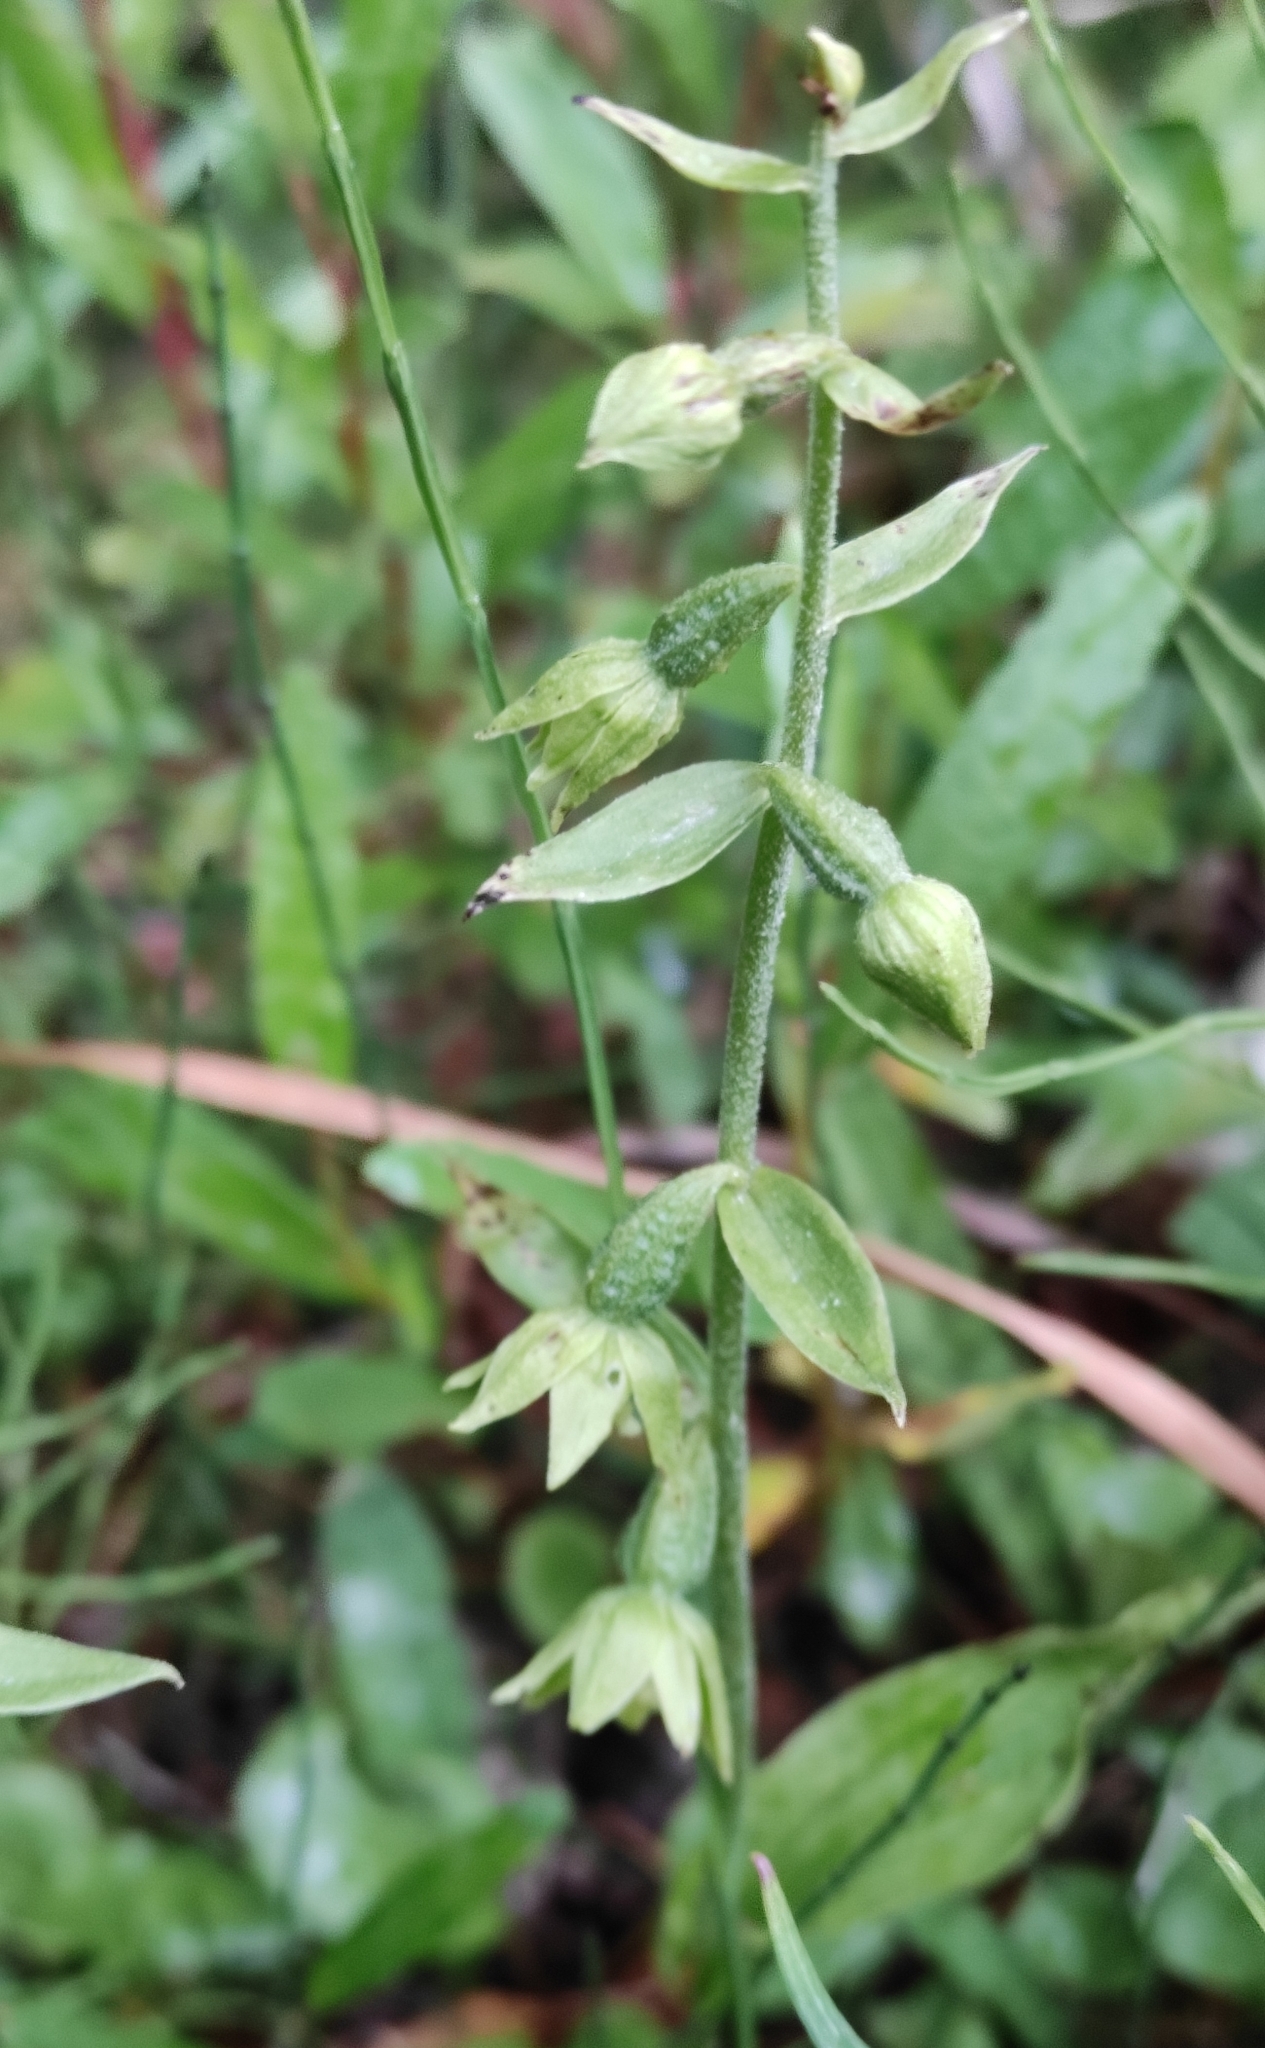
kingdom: Plantae
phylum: Tracheophyta
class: Liliopsida
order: Asparagales
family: Orchidaceae
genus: Epipactis
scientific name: Epipactis helleborine
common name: Broad-leaved helleborine
